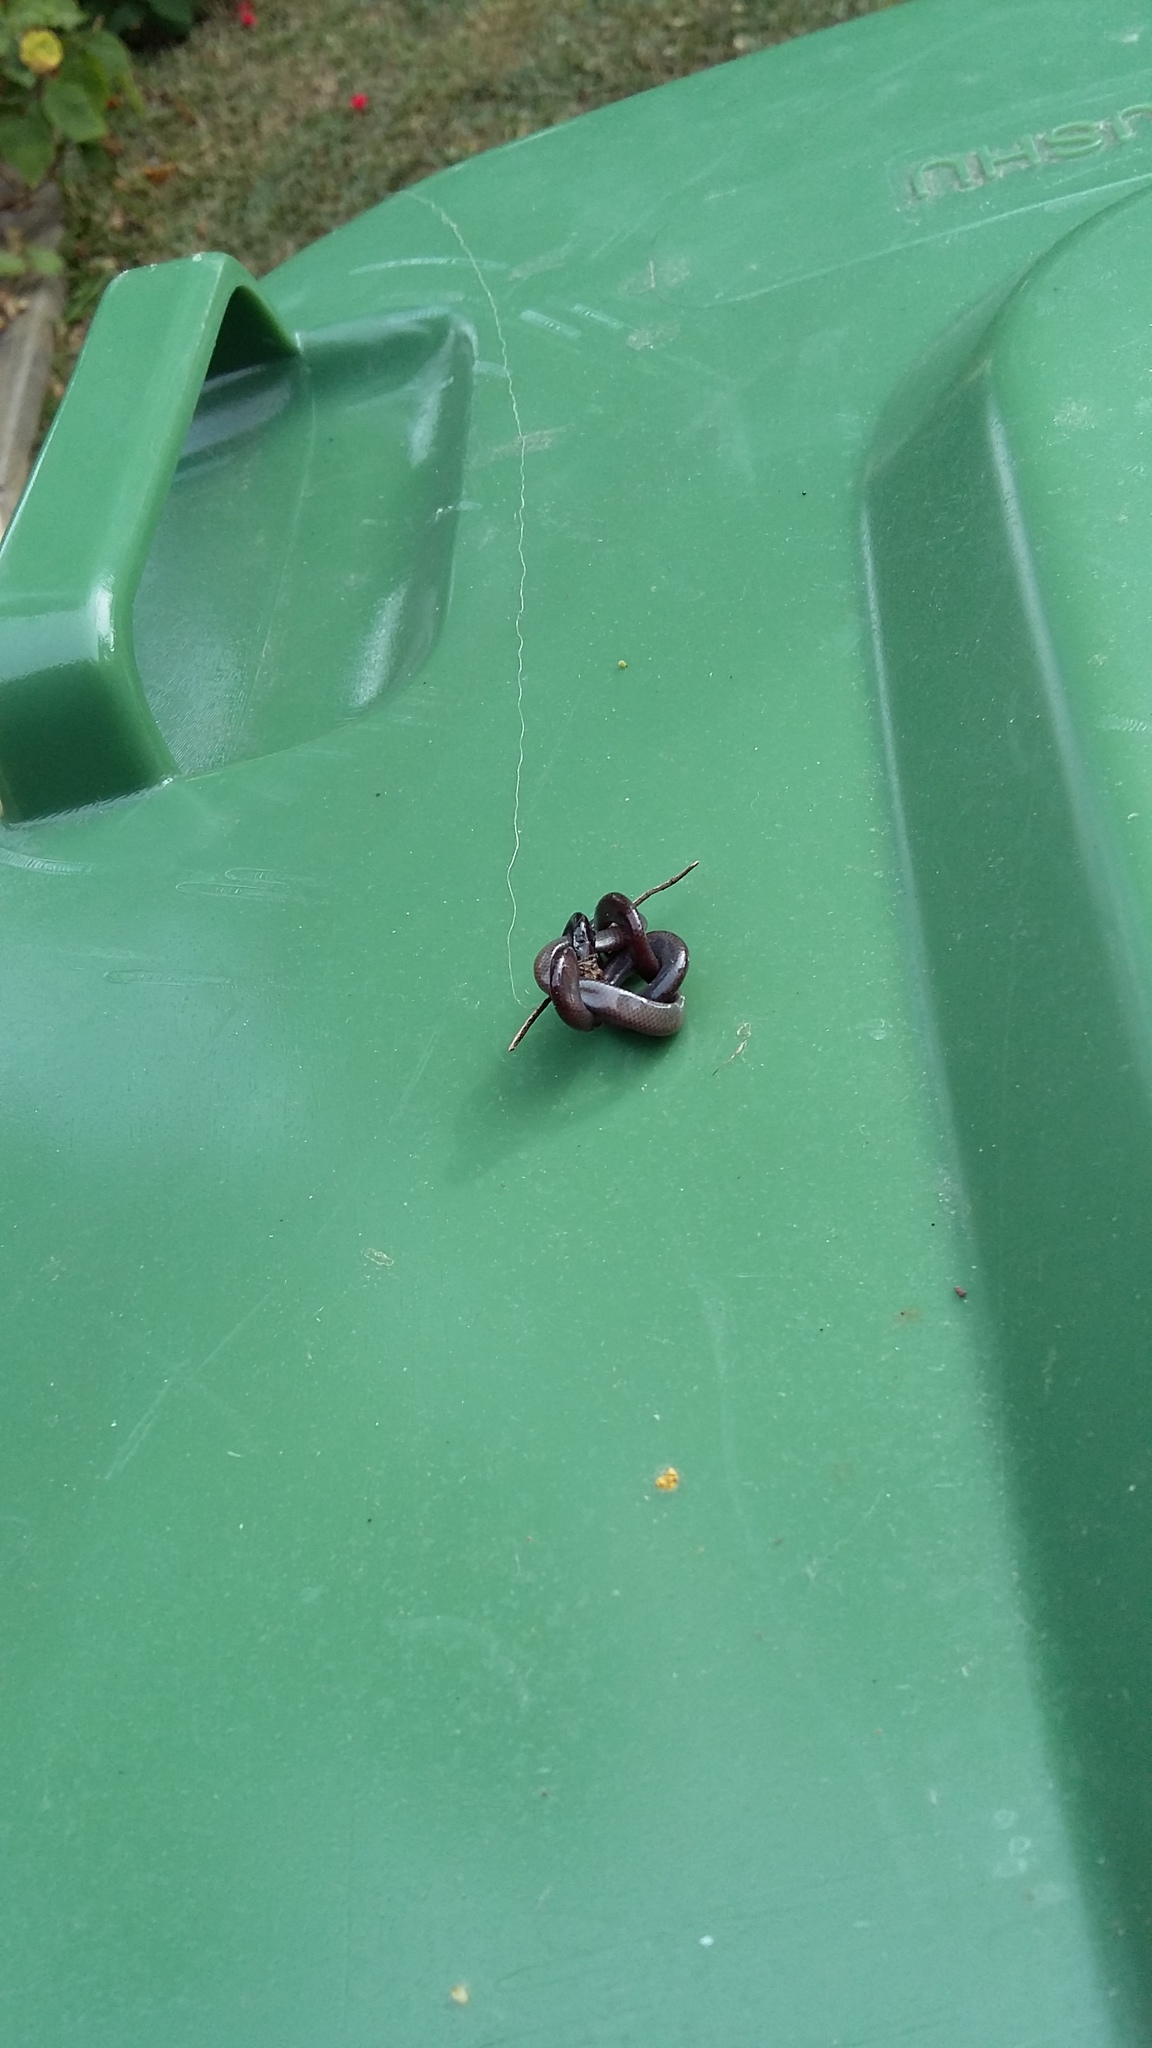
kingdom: Animalia
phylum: Chordata
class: Squamata
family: Typhlopidae
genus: Indotyphlops
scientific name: Indotyphlops braminus
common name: Brahminy blindsnake
